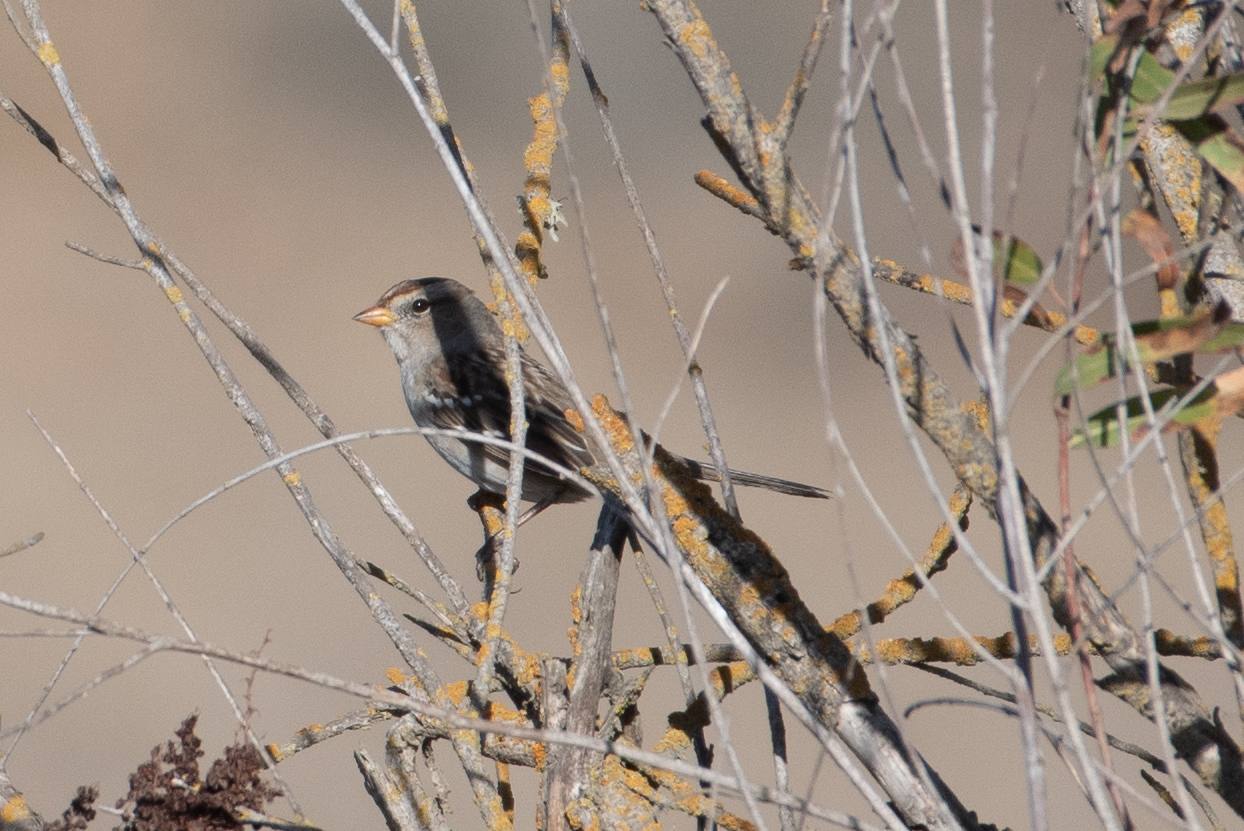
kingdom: Animalia
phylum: Chordata
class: Aves
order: Passeriformes
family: Passerellidae
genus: Zonotrichia
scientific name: Zonotrichia leucophrys
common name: White-crowned sparrow
